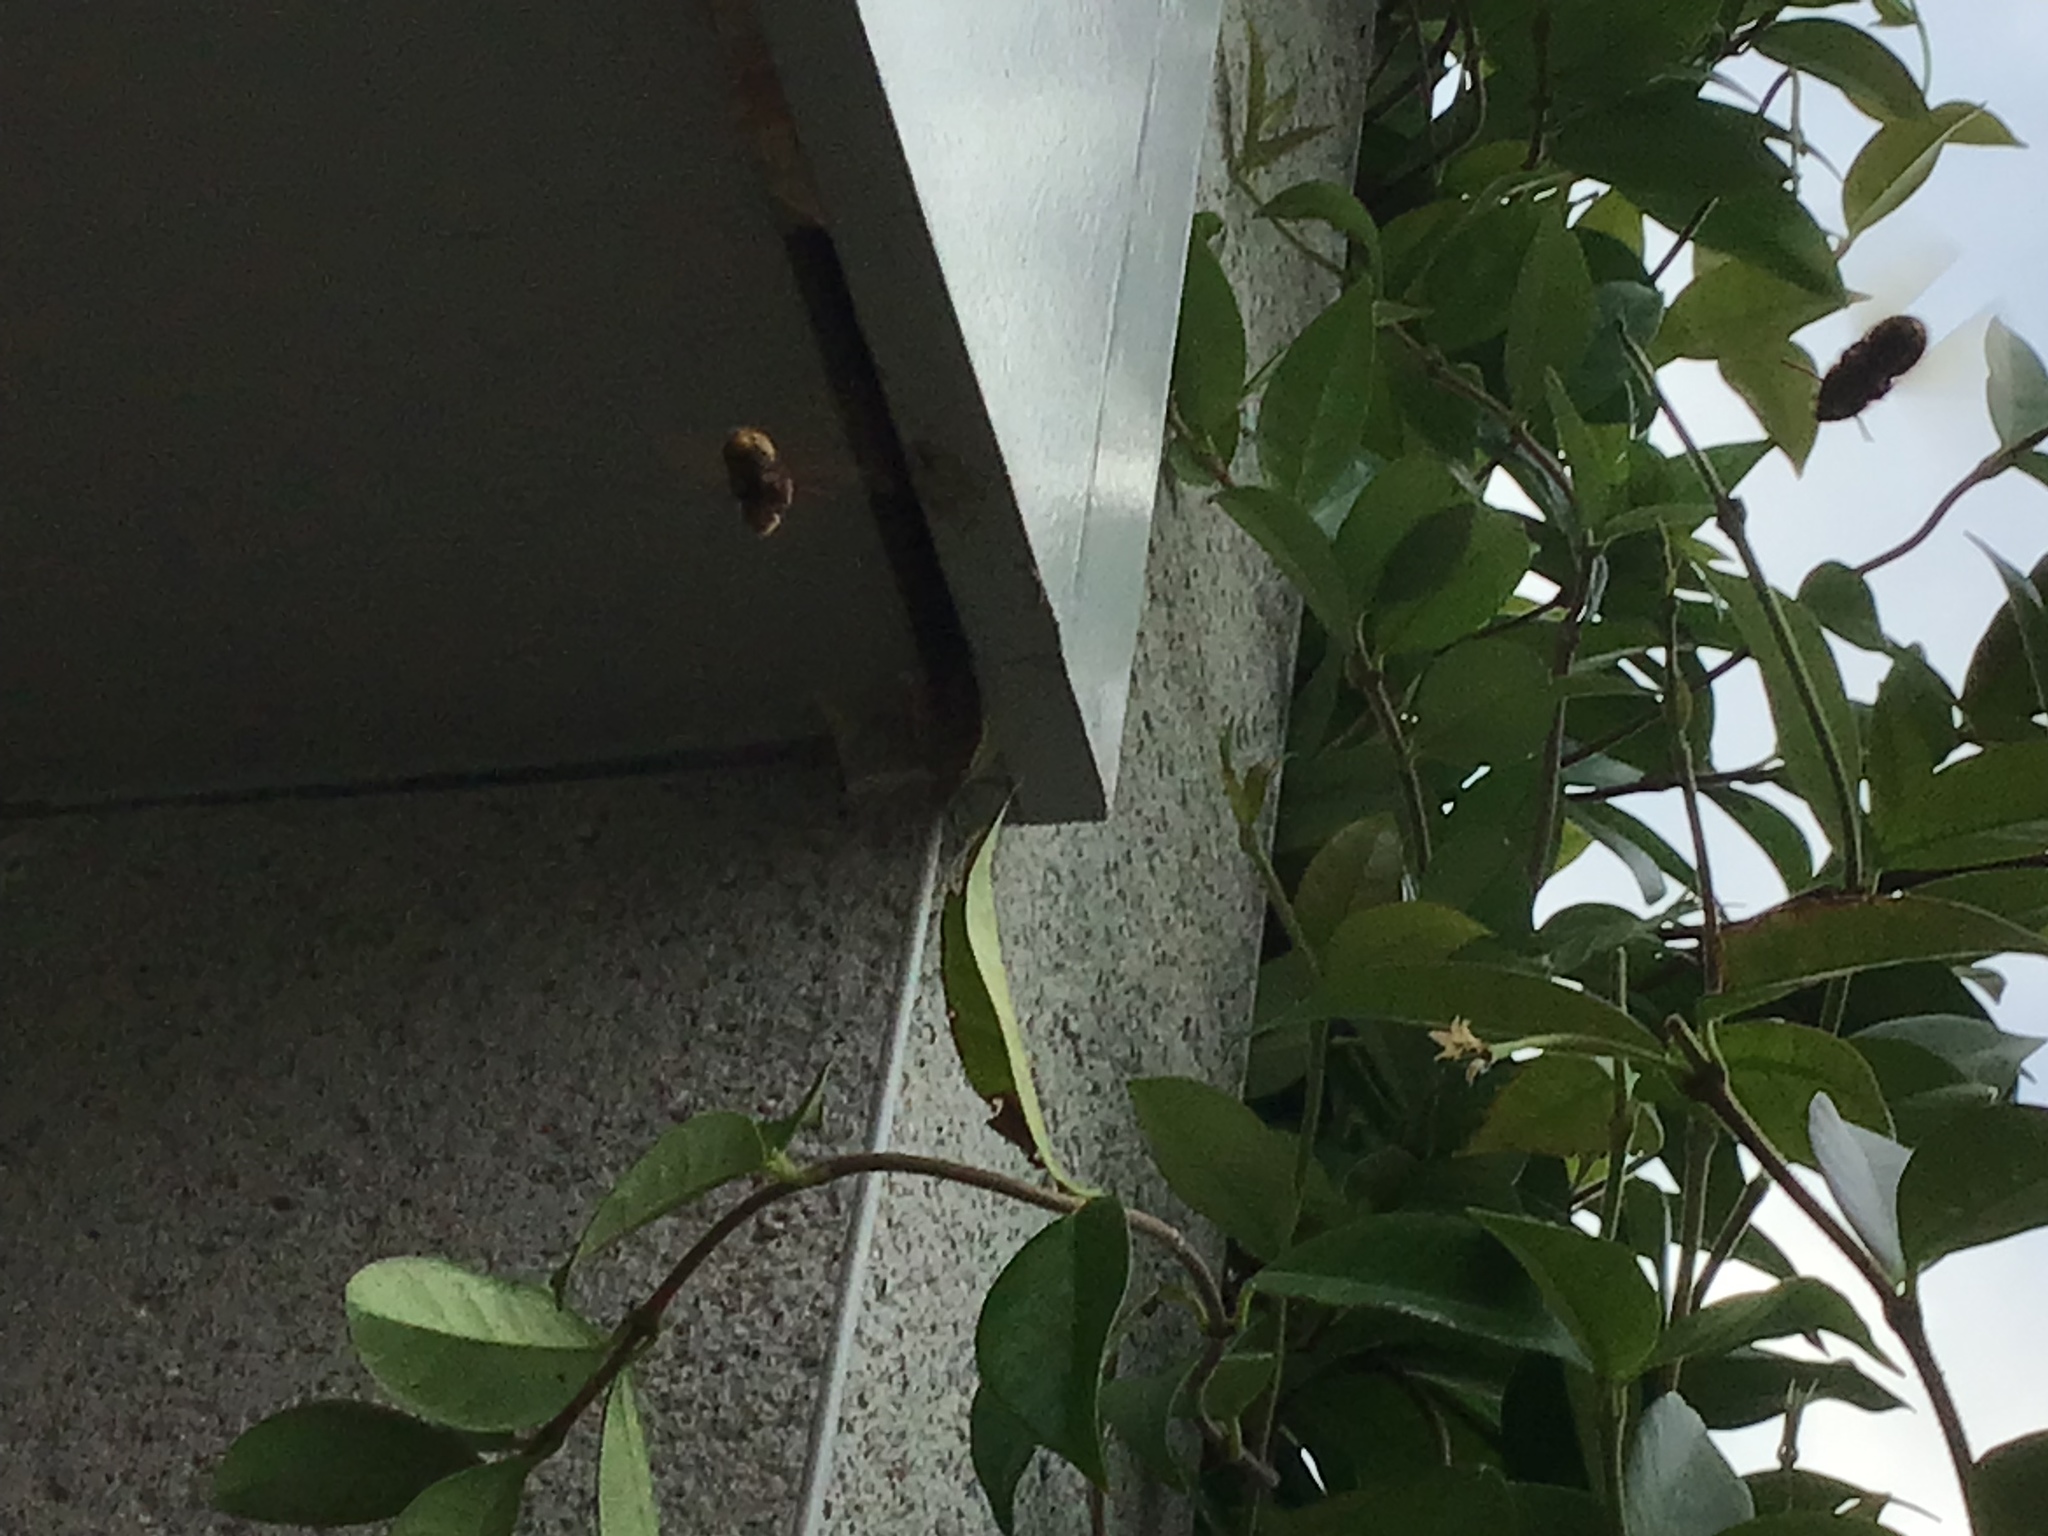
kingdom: Animalia
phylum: Arthropoda
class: Insecta
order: Hymenoptera
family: Vespidae
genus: Vespa
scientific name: Vespa crabro
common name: Hornet
